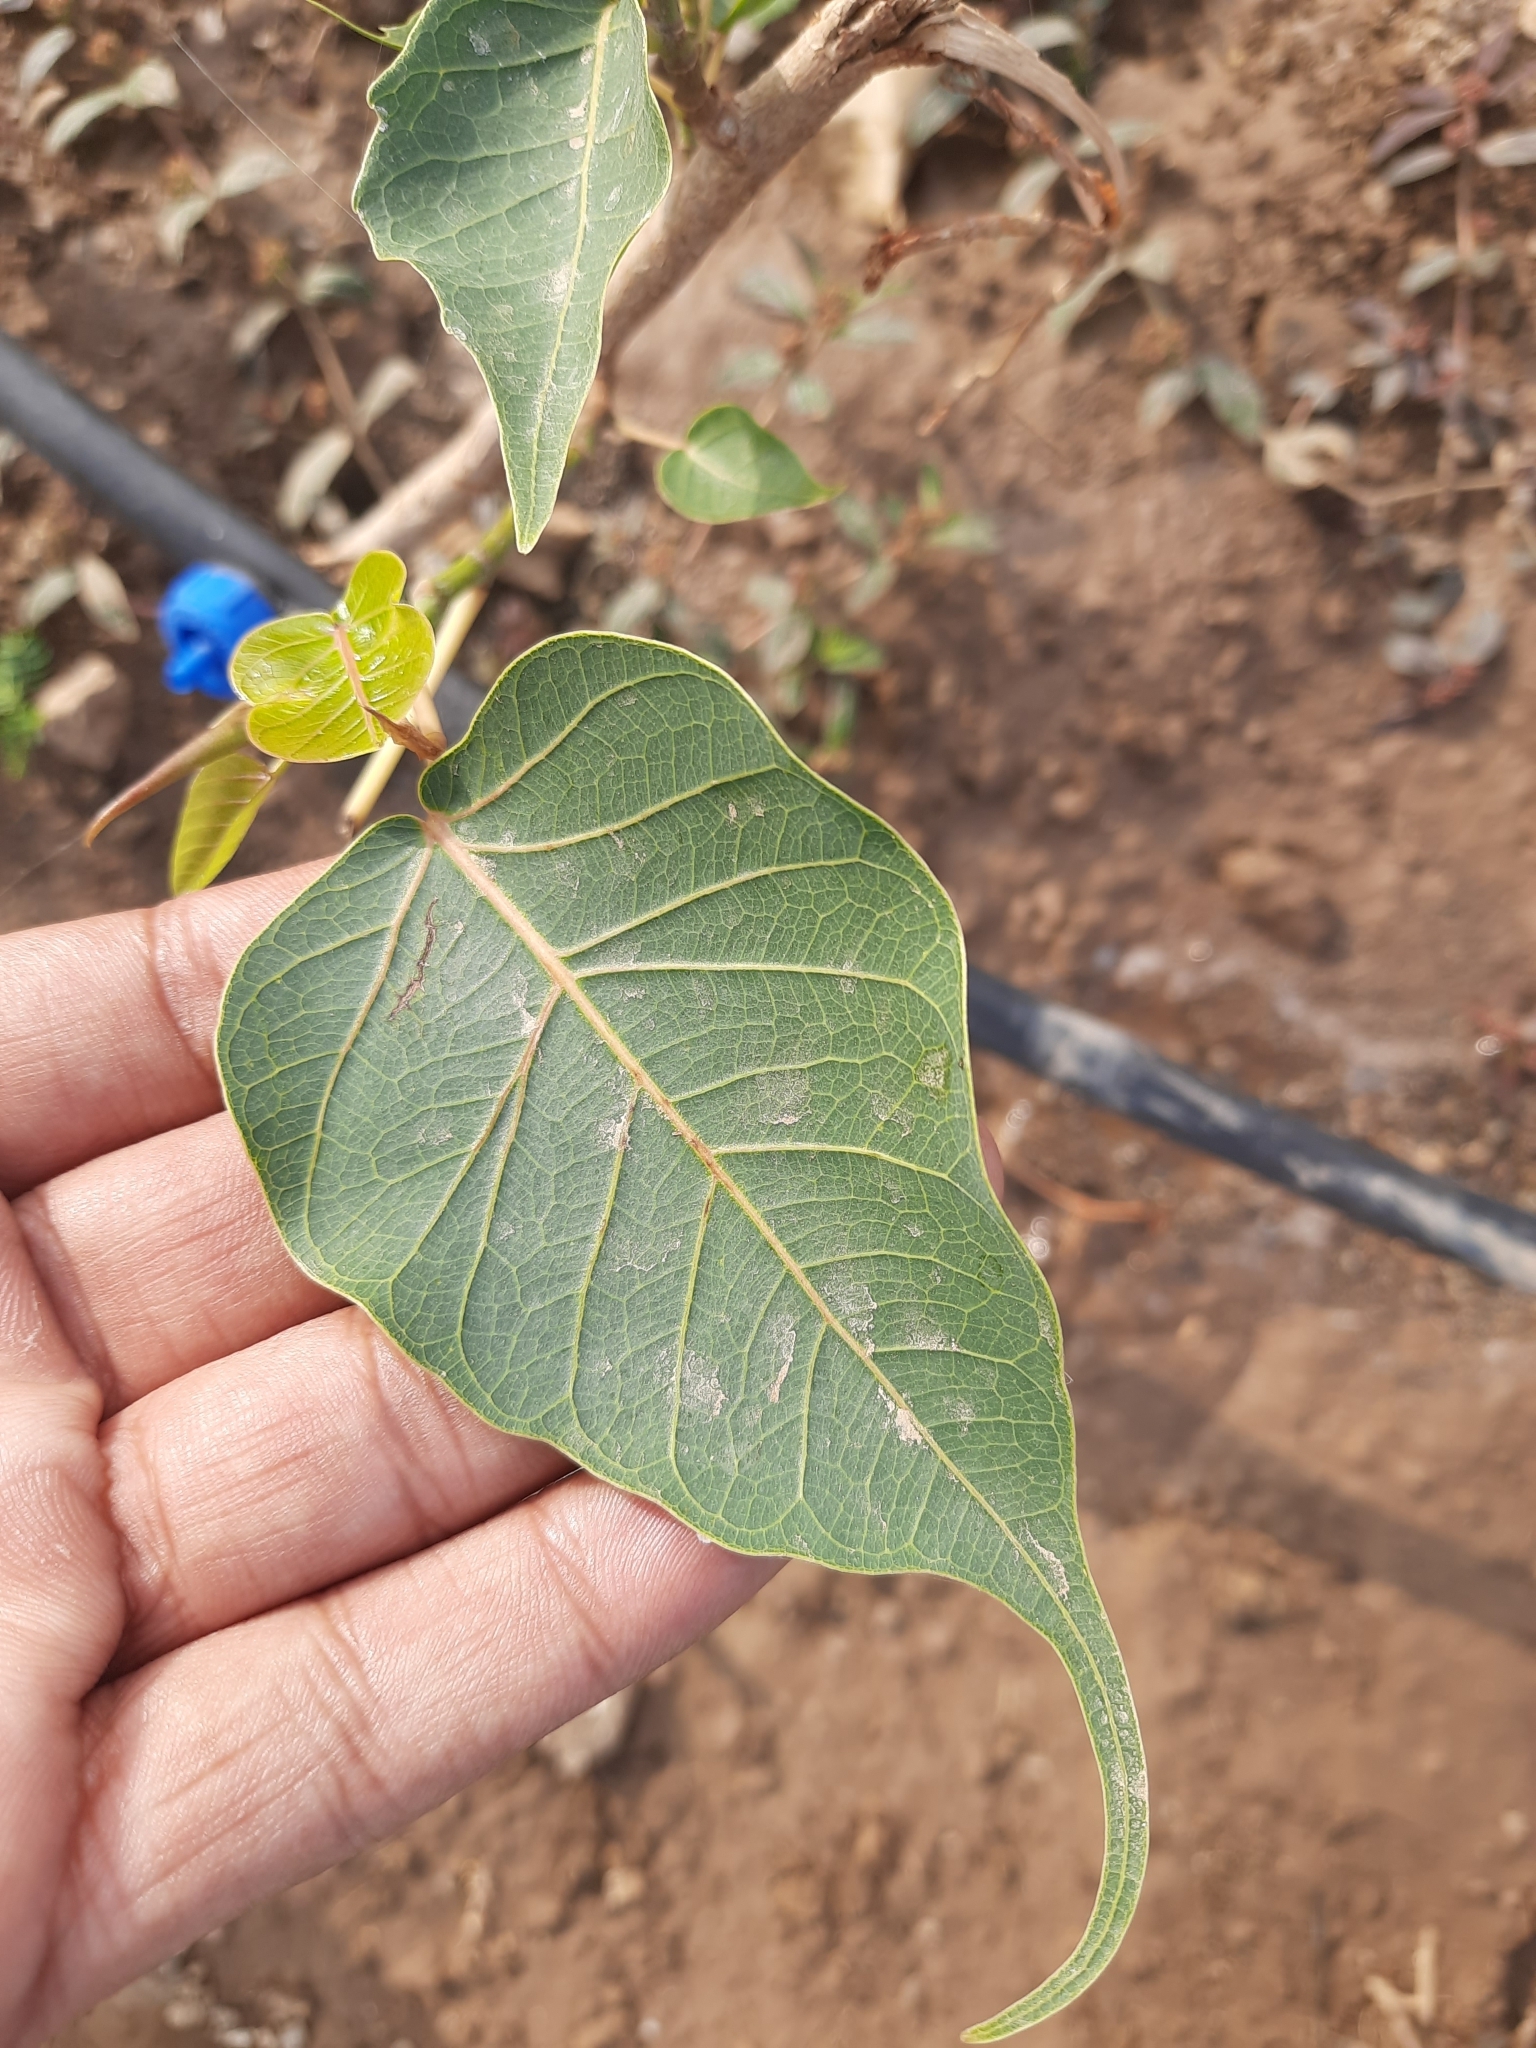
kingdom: Plantae
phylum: Tracheophyta
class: Magnoliopsida
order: Rosales
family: Moraceae
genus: Ficus
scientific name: Ficus religiosa
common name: Bodhi tree
